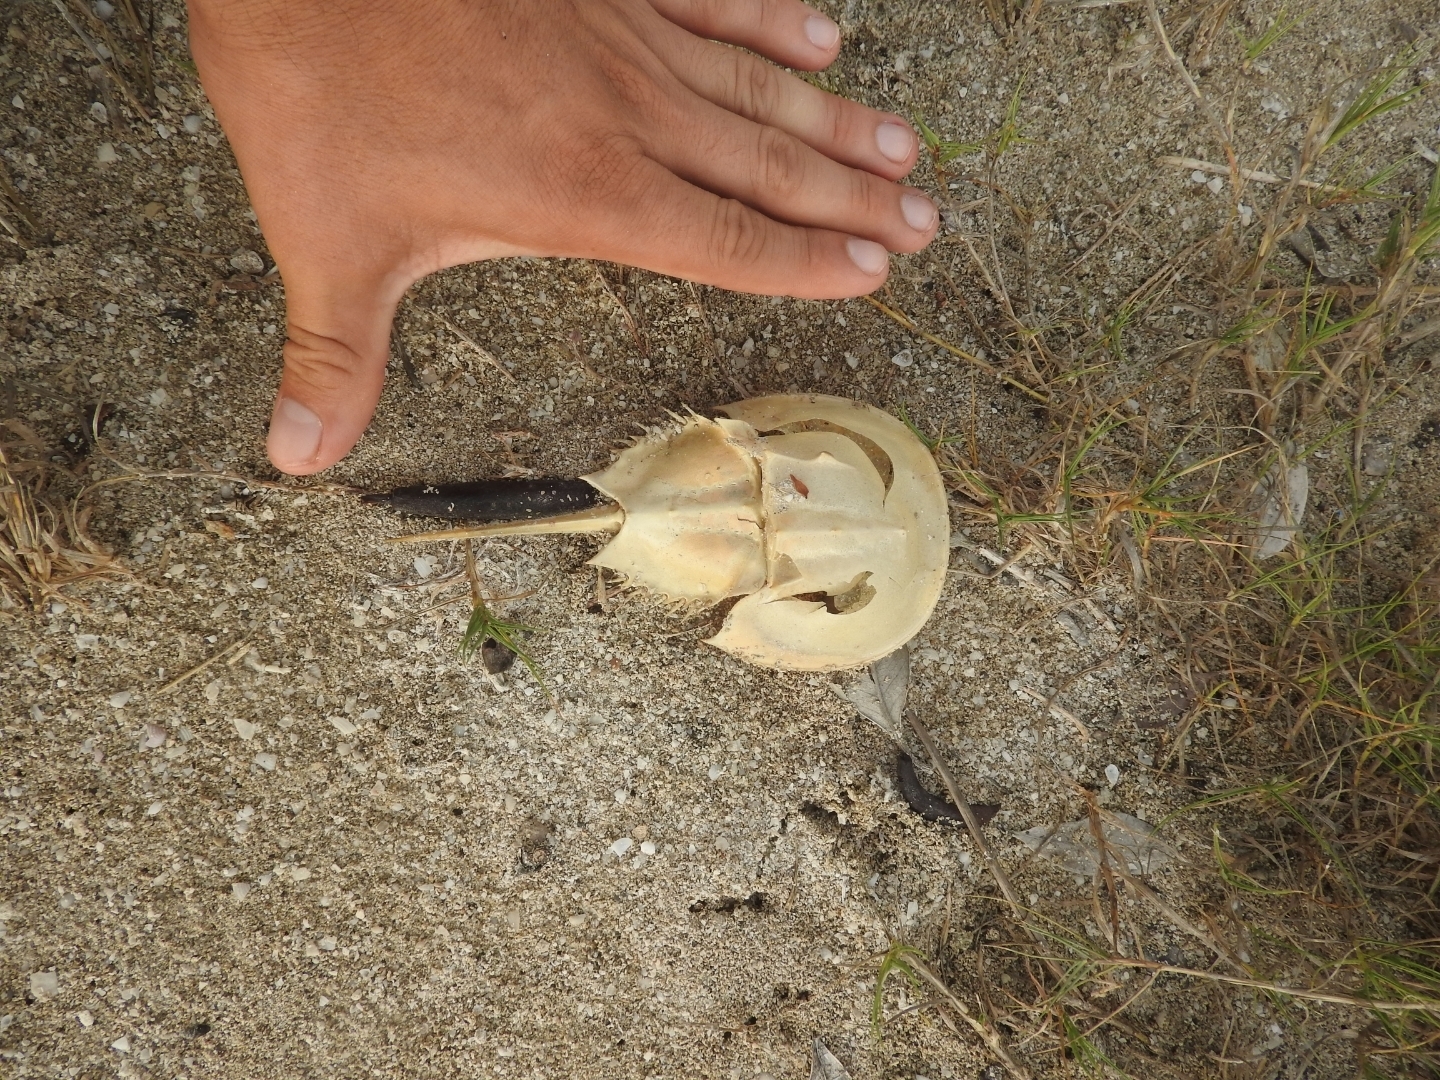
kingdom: Animalia
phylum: Arthropoda
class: Merostomata
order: Xiphosurida
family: Limulidae
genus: Limulus
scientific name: Limulus polyphemus
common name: Horseshoe crab
